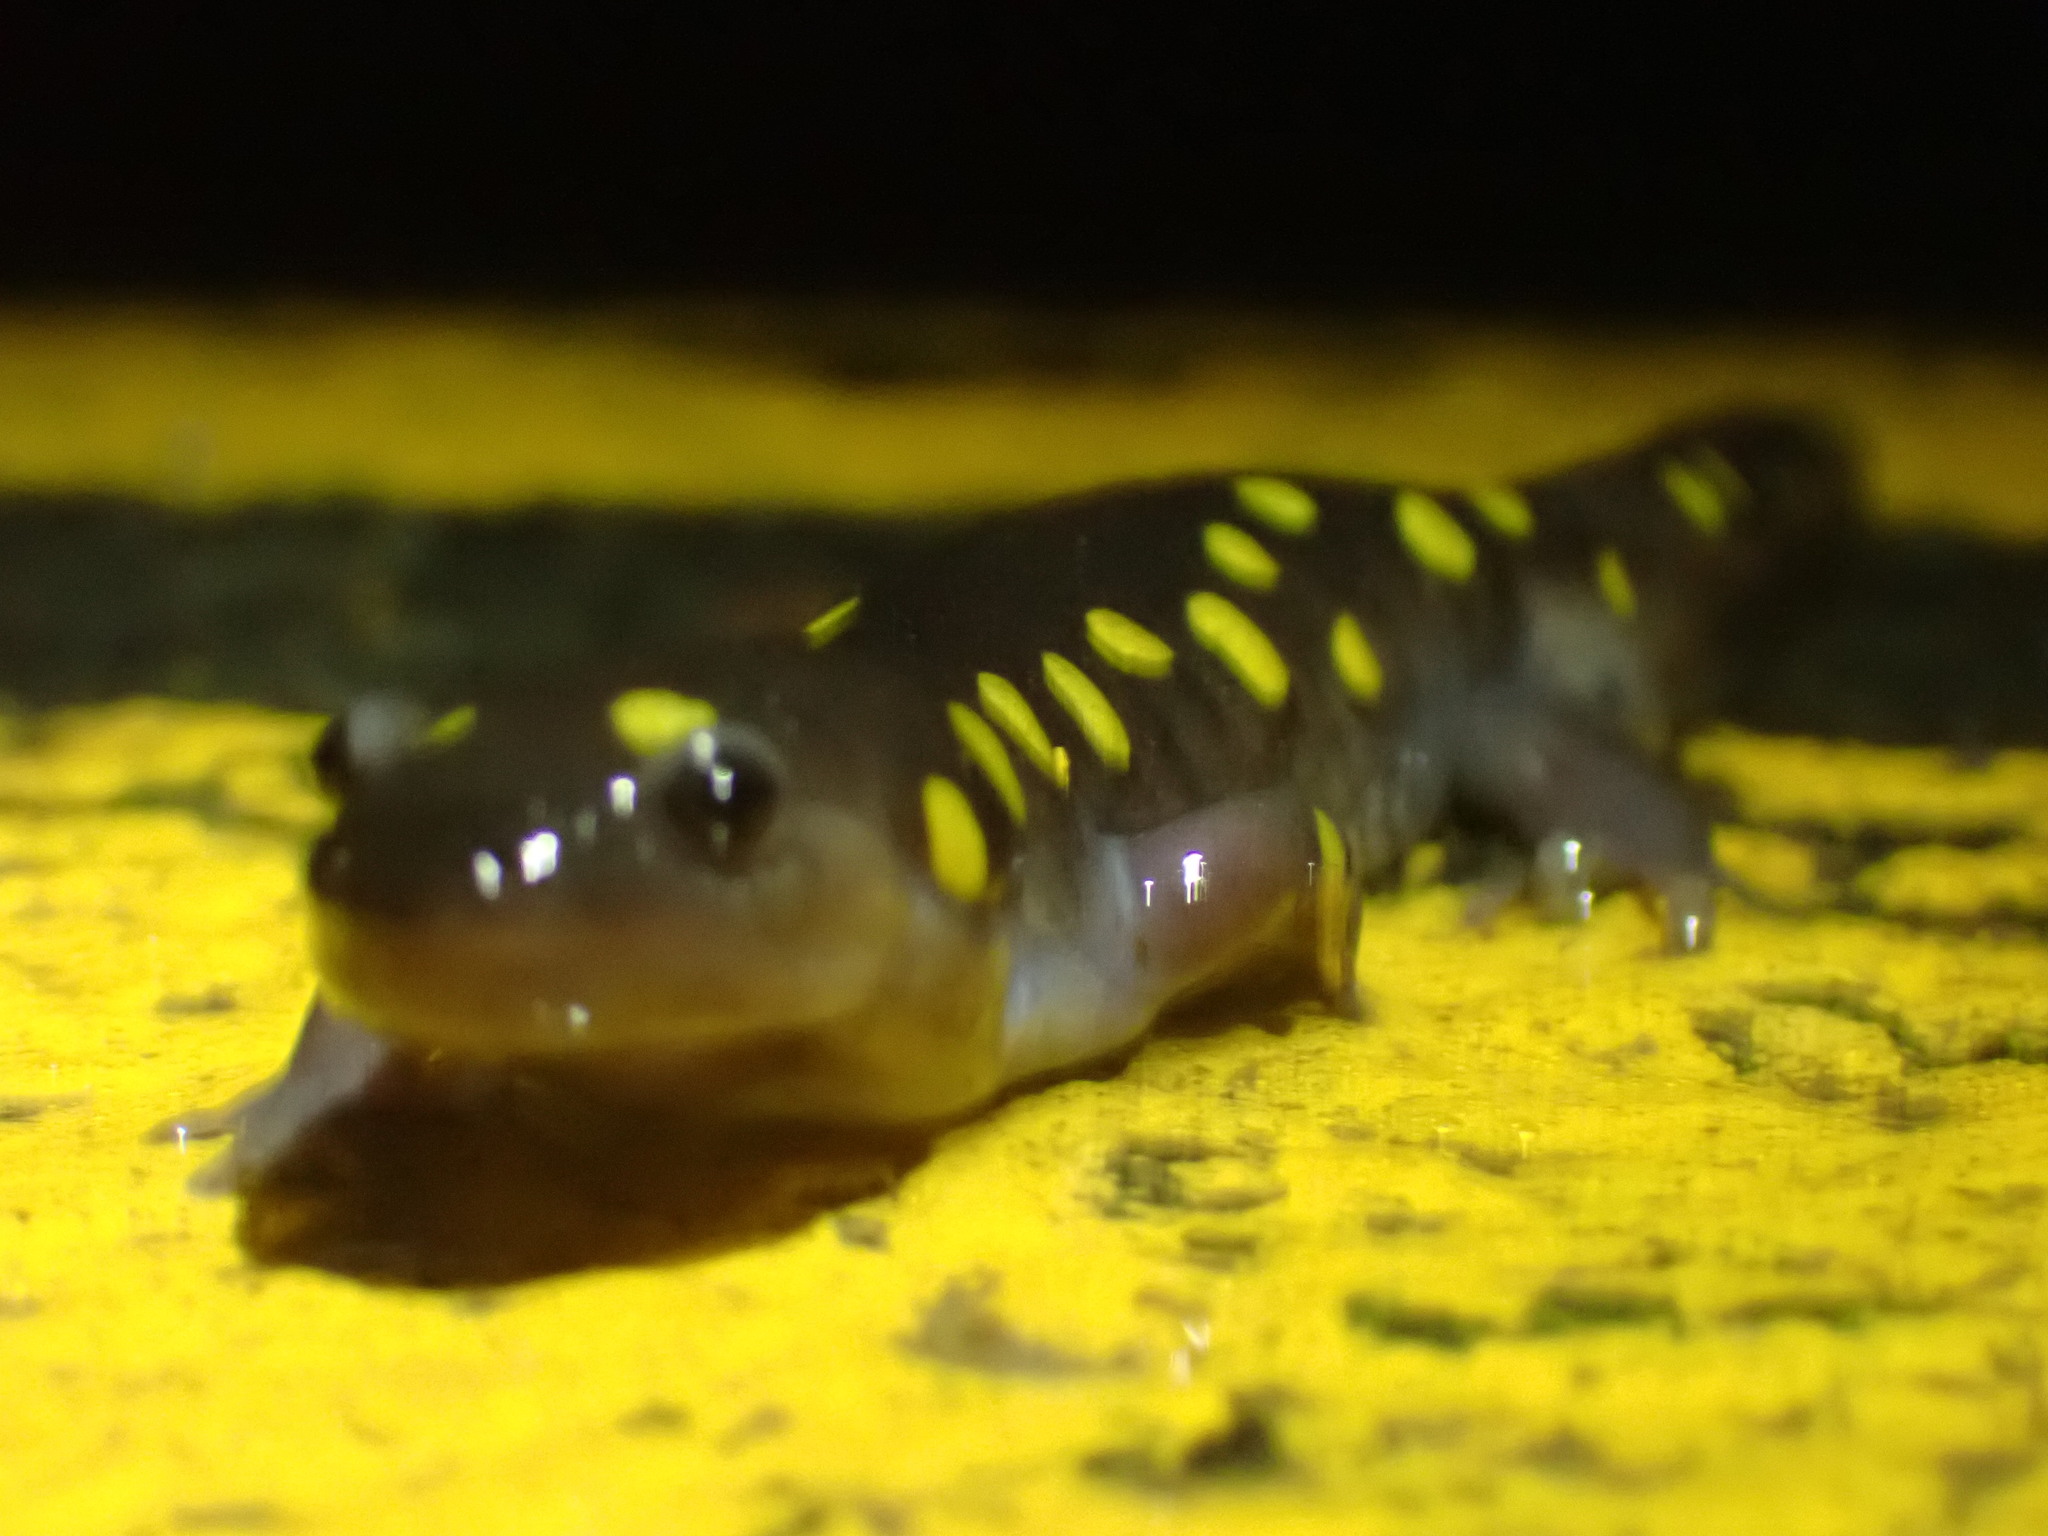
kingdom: Animalia
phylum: Chordata
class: Amphibia
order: Caudata
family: Ambystomatidae
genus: Ambystoma
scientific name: Ambystoma maculatum
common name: Spotted salamander
